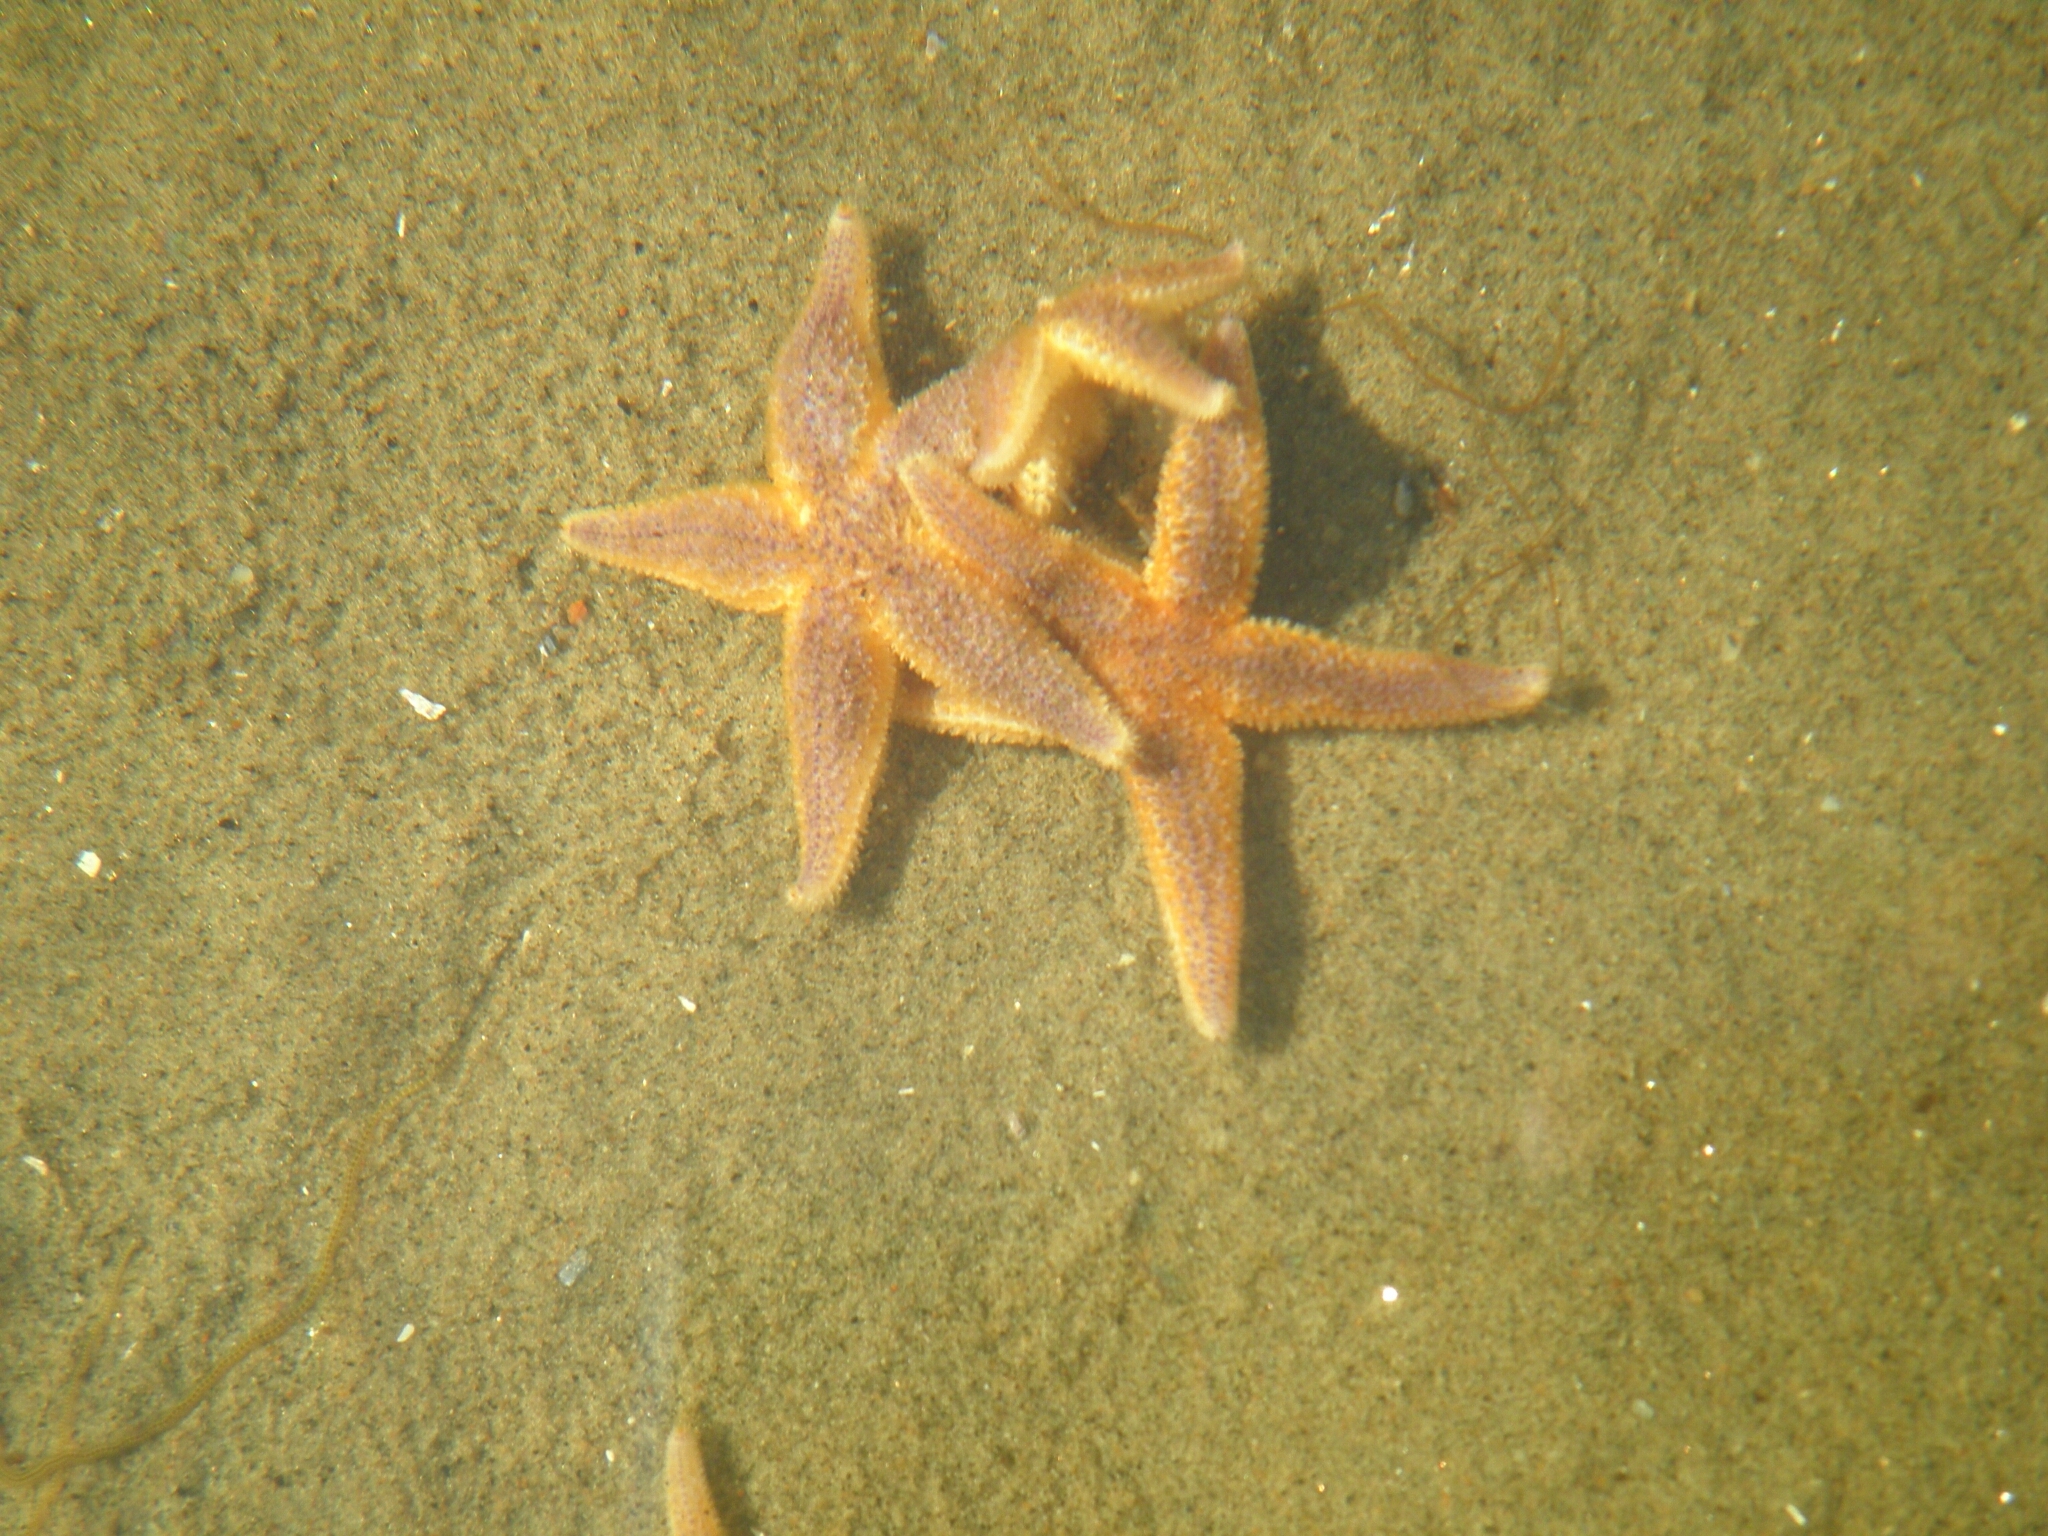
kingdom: Animalia
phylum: Echinodermata
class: Asteroidea
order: Forcipulatida
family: Asteriidae
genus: Asterias
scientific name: Asterias rubens
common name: Common starfish
